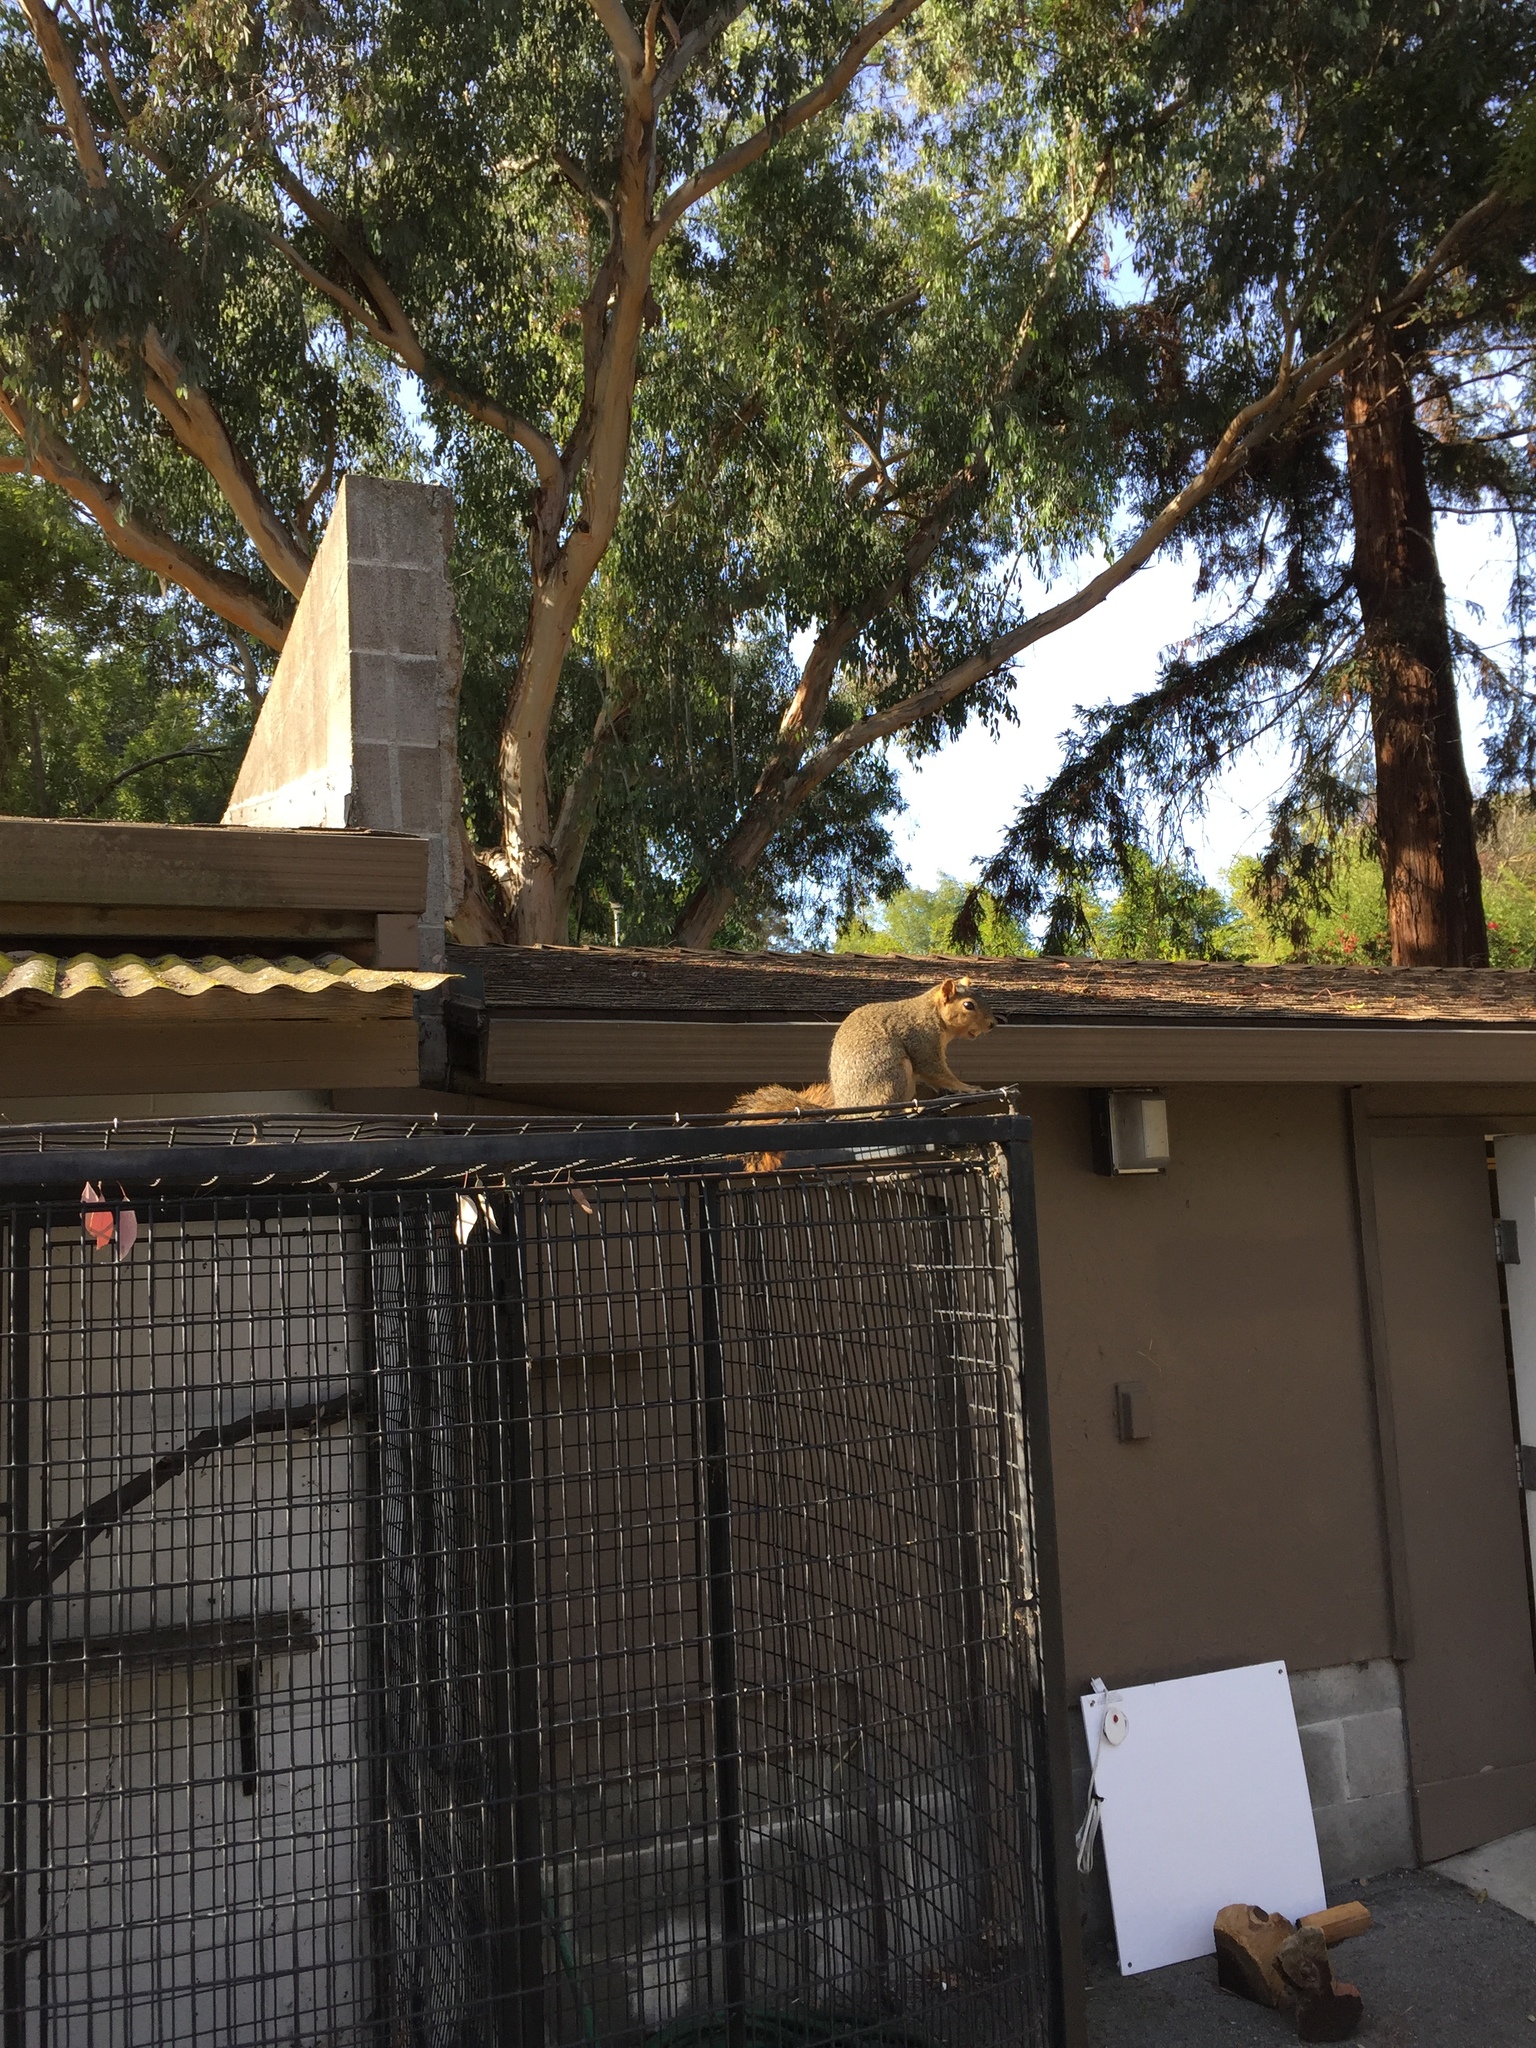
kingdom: Animalia
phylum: Chordata
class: Mammalia
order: Rodentia
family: Sciuridae
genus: Sciurus
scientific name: Sciurus niger
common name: Fox squirrel
